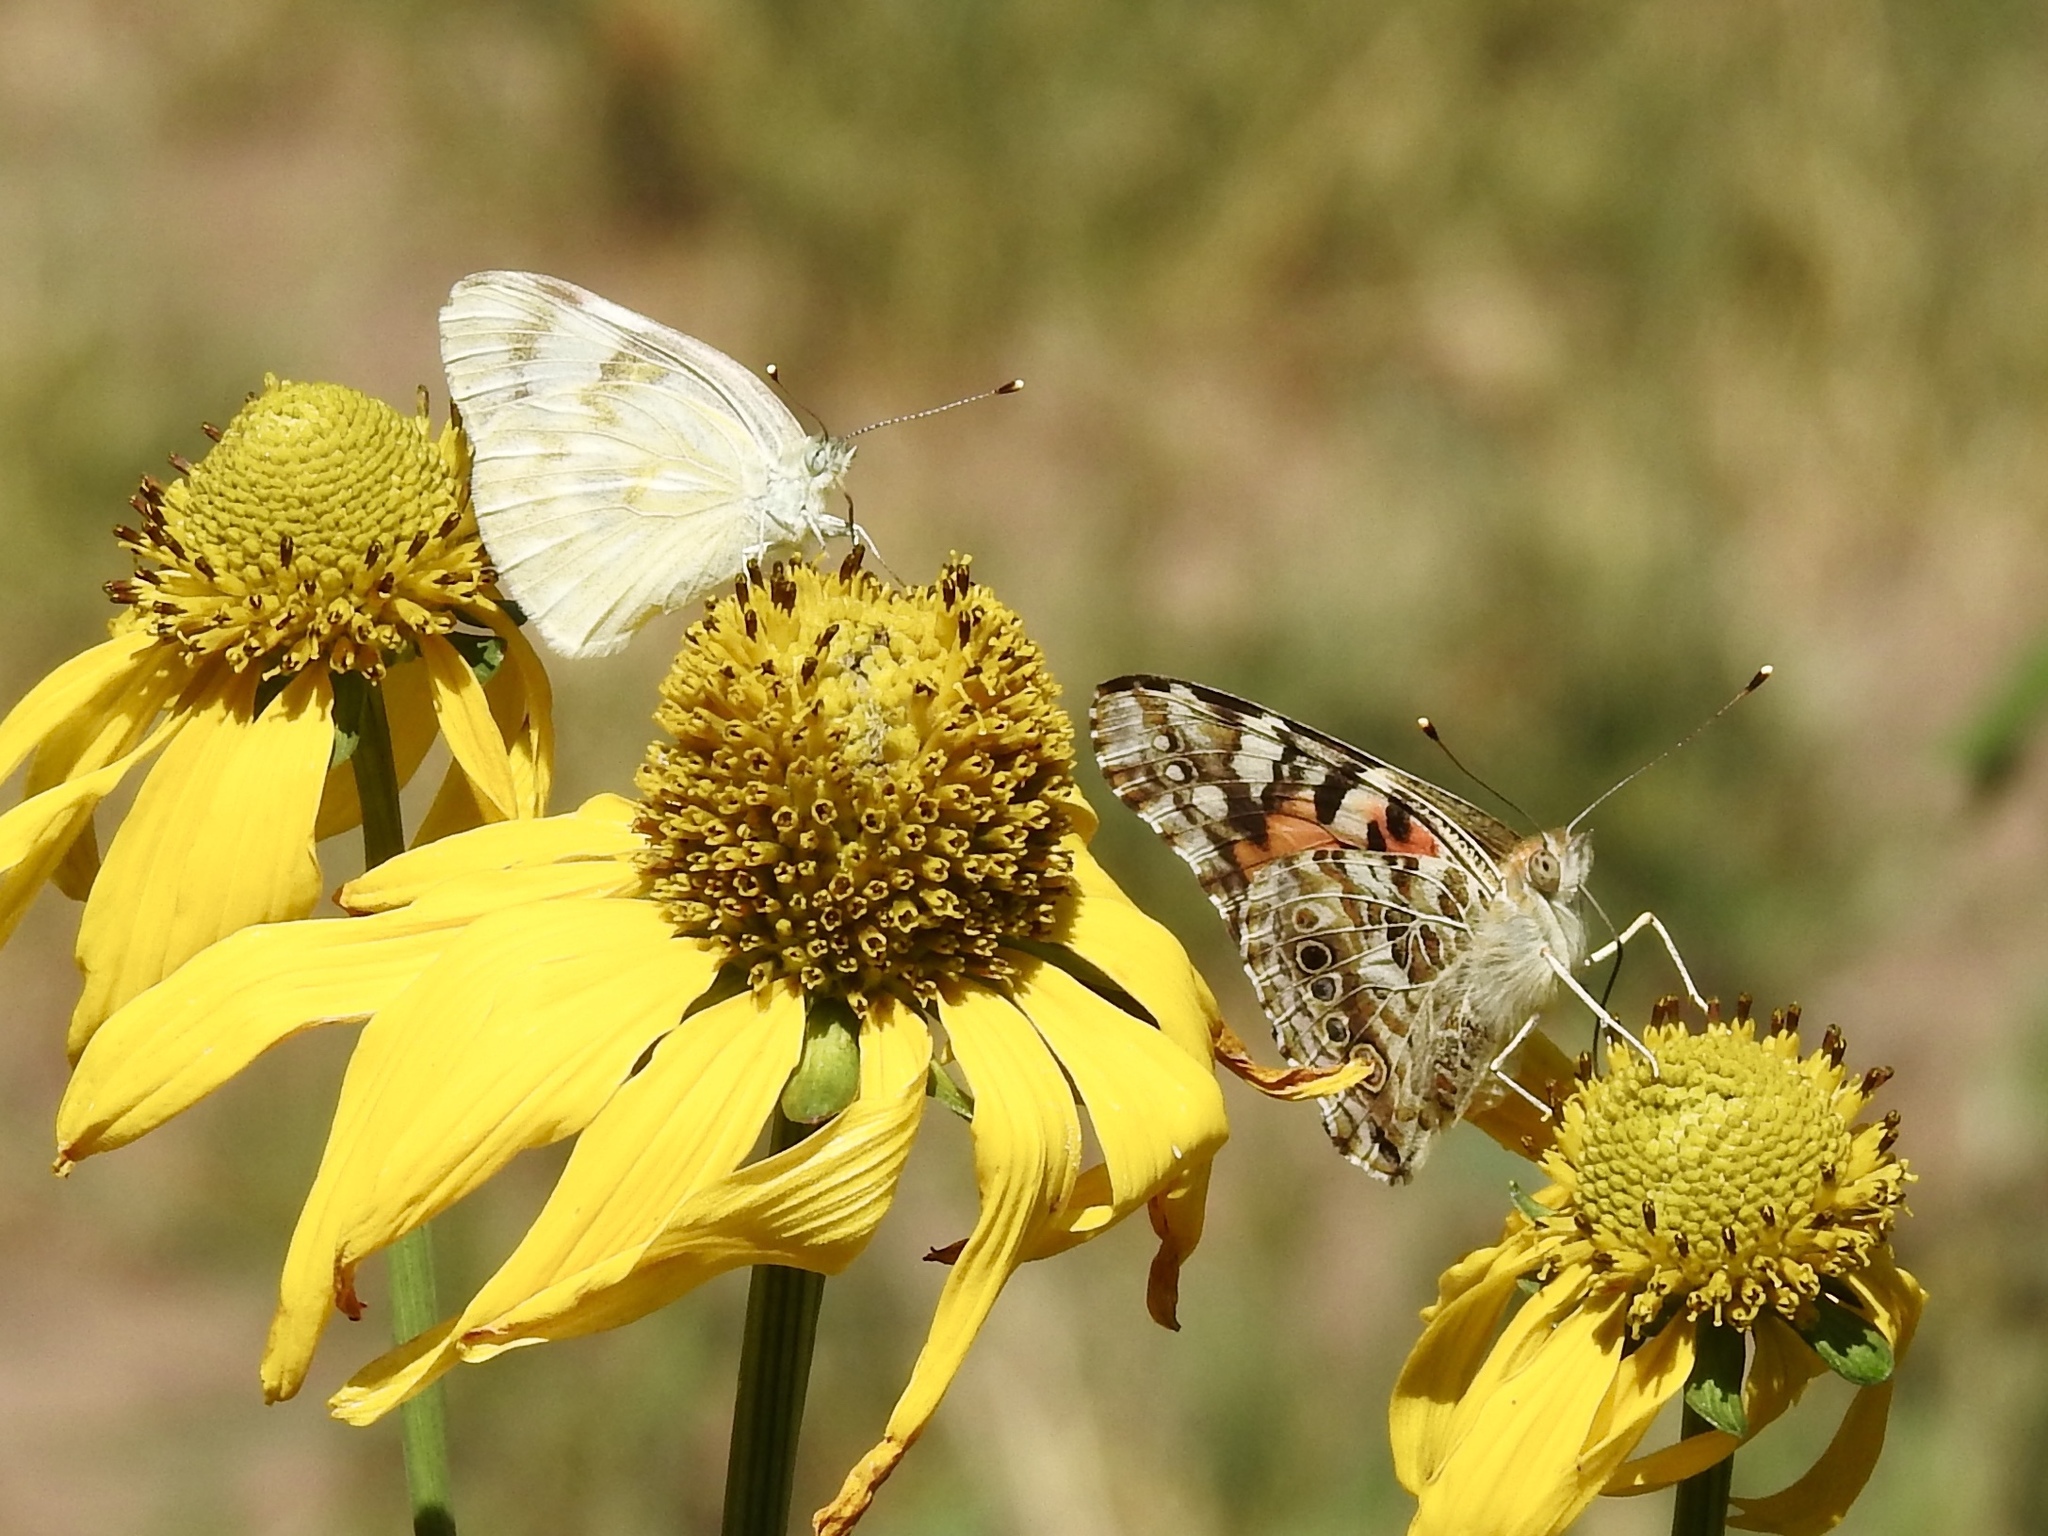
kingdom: Animalia
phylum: Arthropoda
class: Insecta
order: Lepidoptera
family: Pieridae
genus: Pontia
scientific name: Pontia protodice
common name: Checkered white
